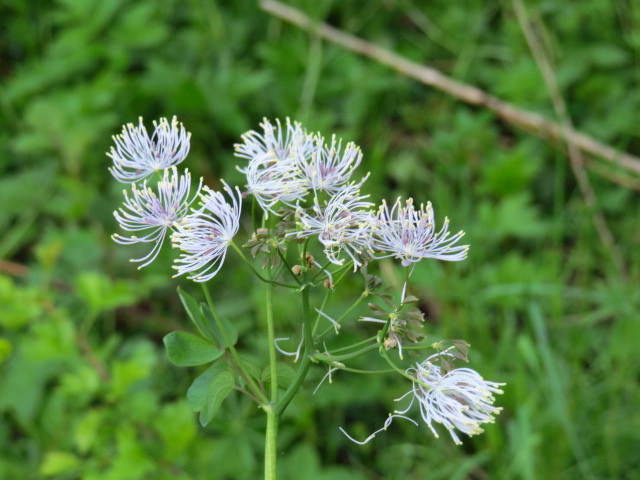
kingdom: Plantae
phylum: Tracheophyta
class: Magnoliopsida
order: Ranunculales
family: Ranunculaceae
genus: Thalictrum
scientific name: Thalictrum aquilegiifolium
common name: French meadow-rue
